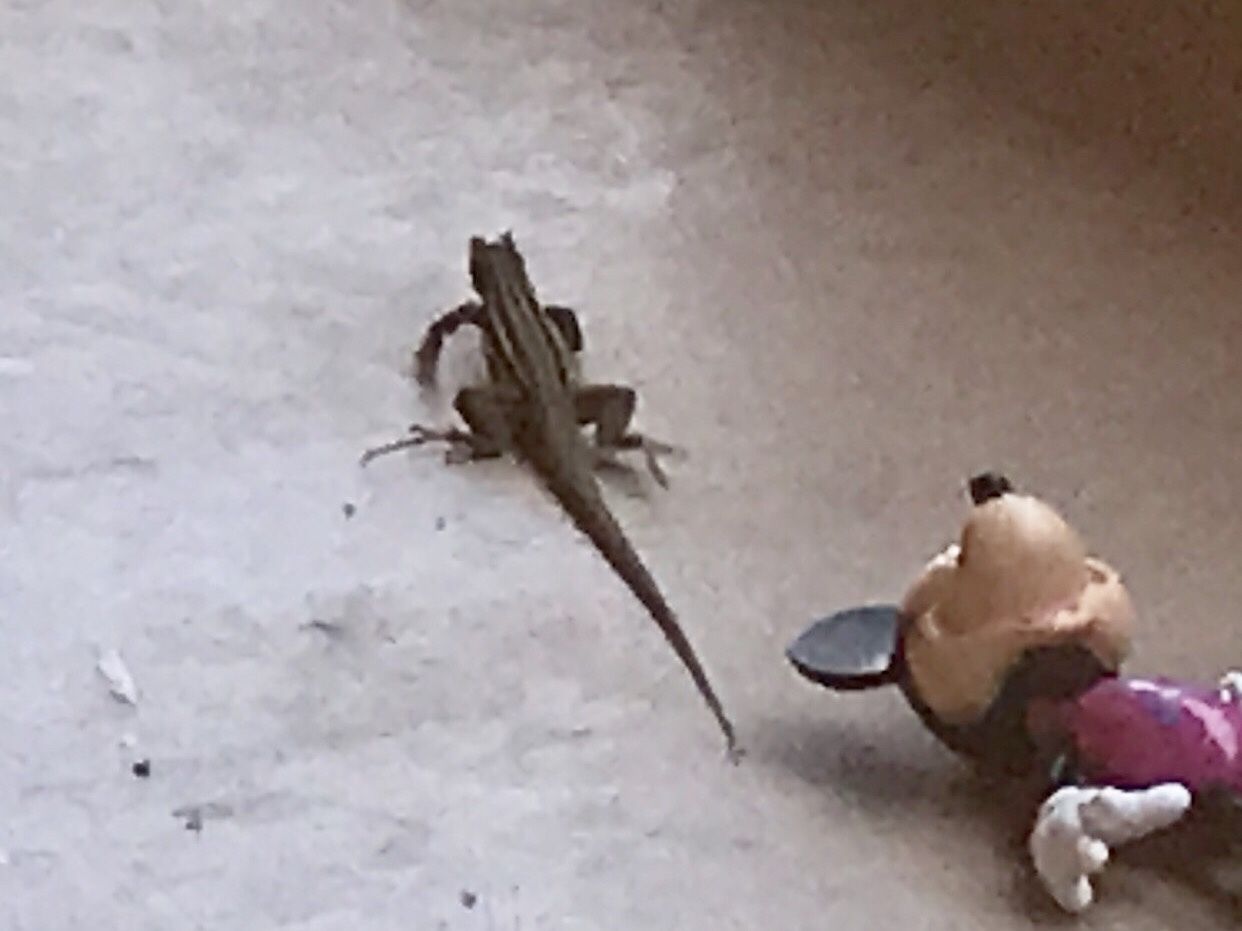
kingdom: Animalia
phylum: Chordata
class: Squamata
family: Teiidae
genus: Aspidoscelis
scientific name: Aspidoscelis sonorae
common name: Sonoran spotted whiptail
